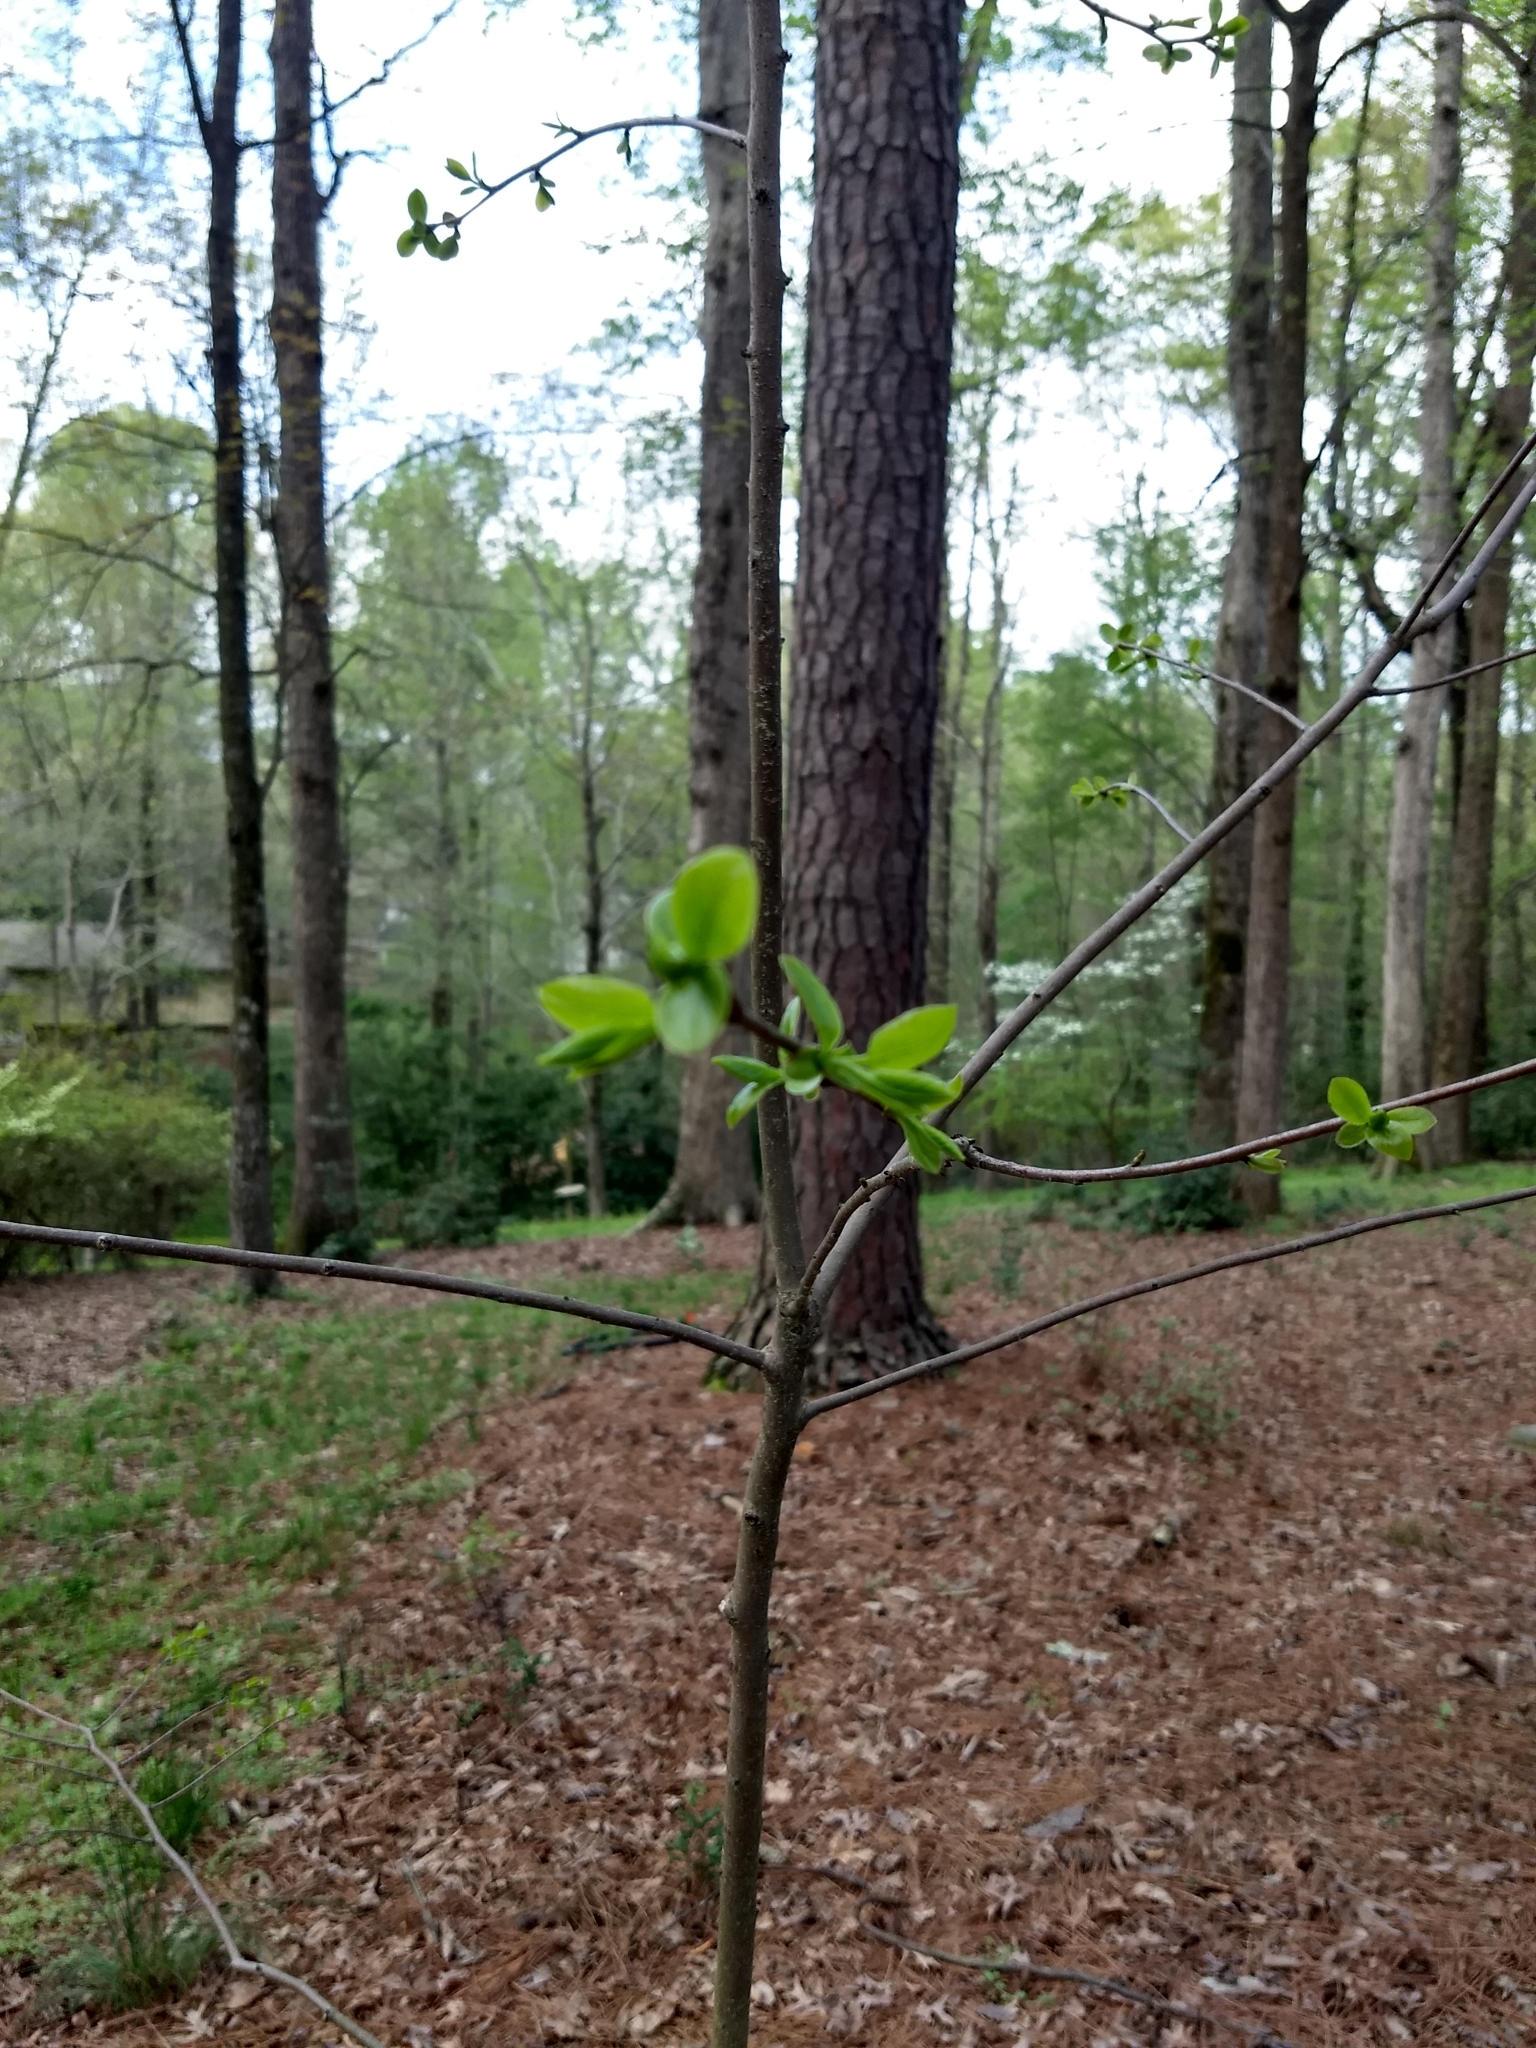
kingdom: Plantae
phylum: Tracheophyta
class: Magnoliopsida
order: Ericales
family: Ebenaceae
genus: Diospyros
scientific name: Diospyros virginiana
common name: Persimmon
